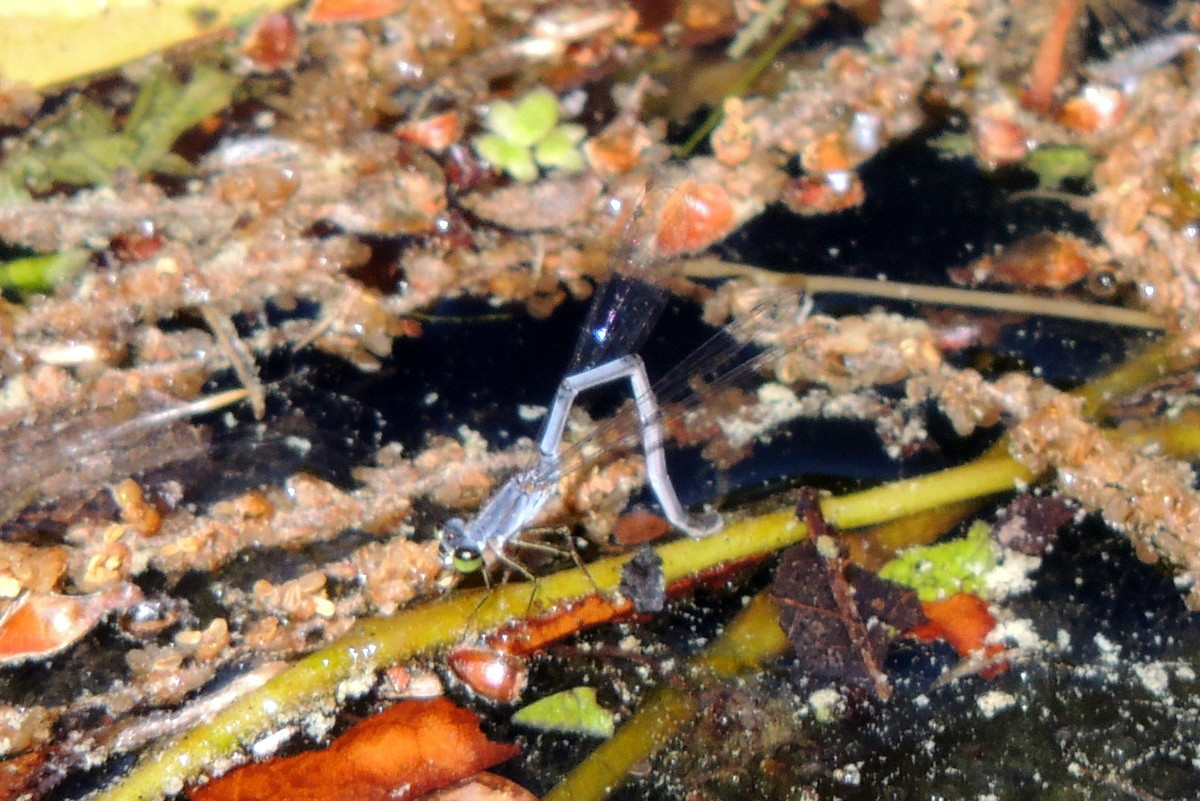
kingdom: Animalia
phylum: Arthropoda
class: Insecta
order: Odonata
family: Coenagrionidae
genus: Ischnura
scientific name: Ischnura posita
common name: Fragile forktail
